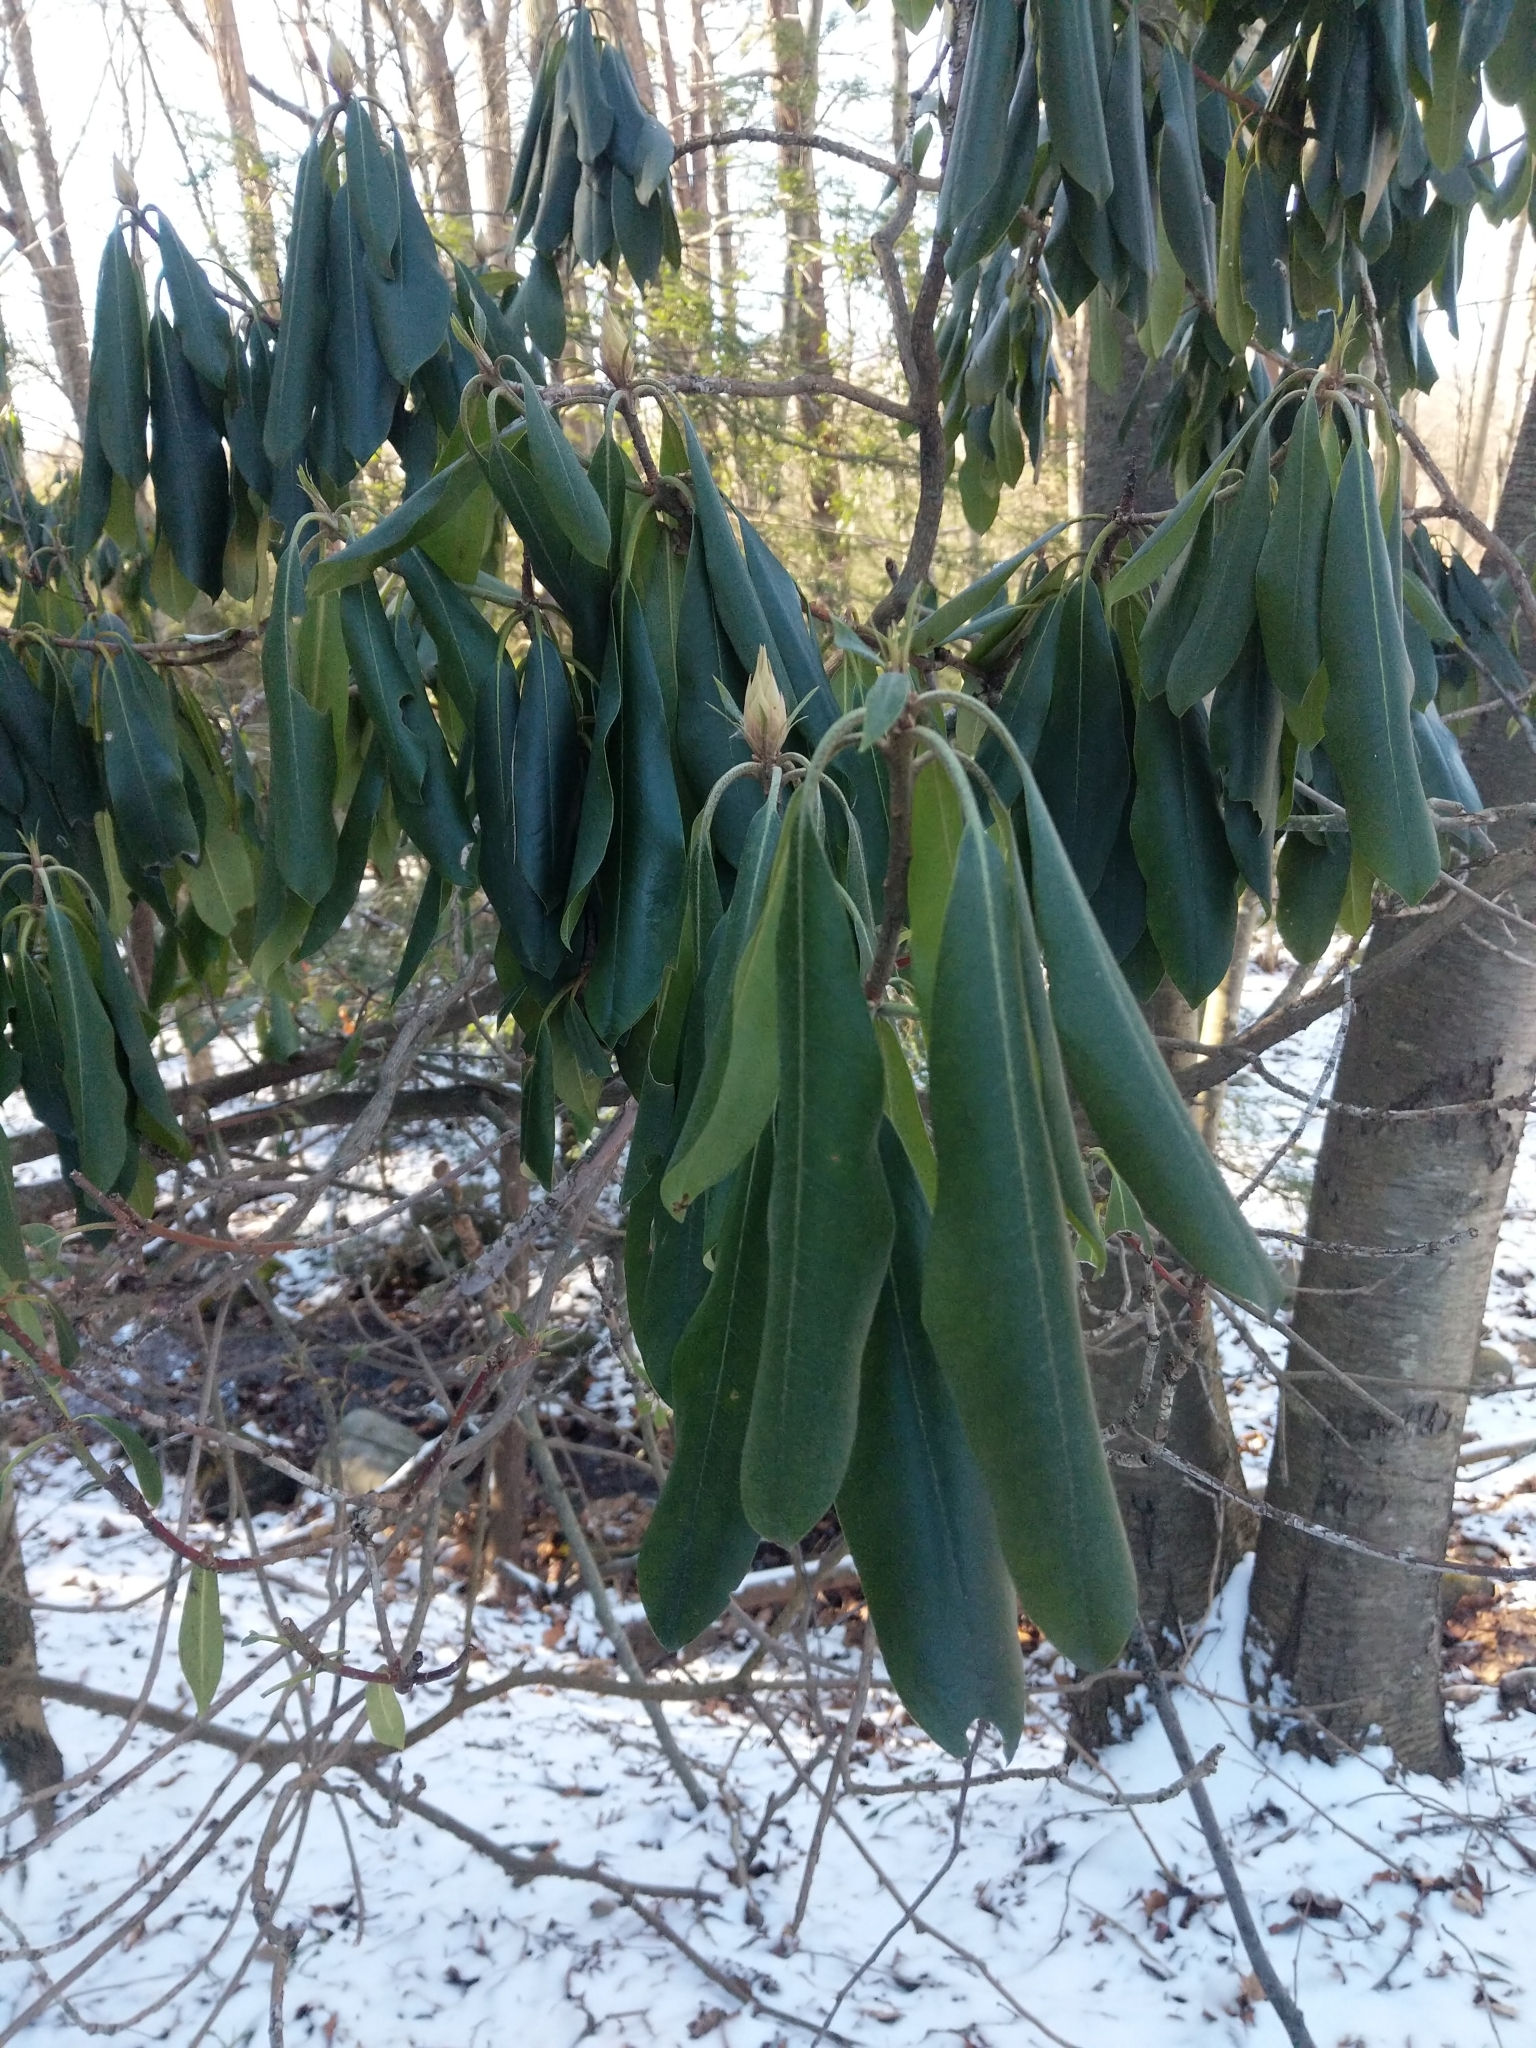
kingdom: Plantae
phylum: Tracheophyta
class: Magnoliopsida
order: Ericales
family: Ericaceae
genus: Rhododendron
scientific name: Rhododendron maximum
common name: Great rhododendron
